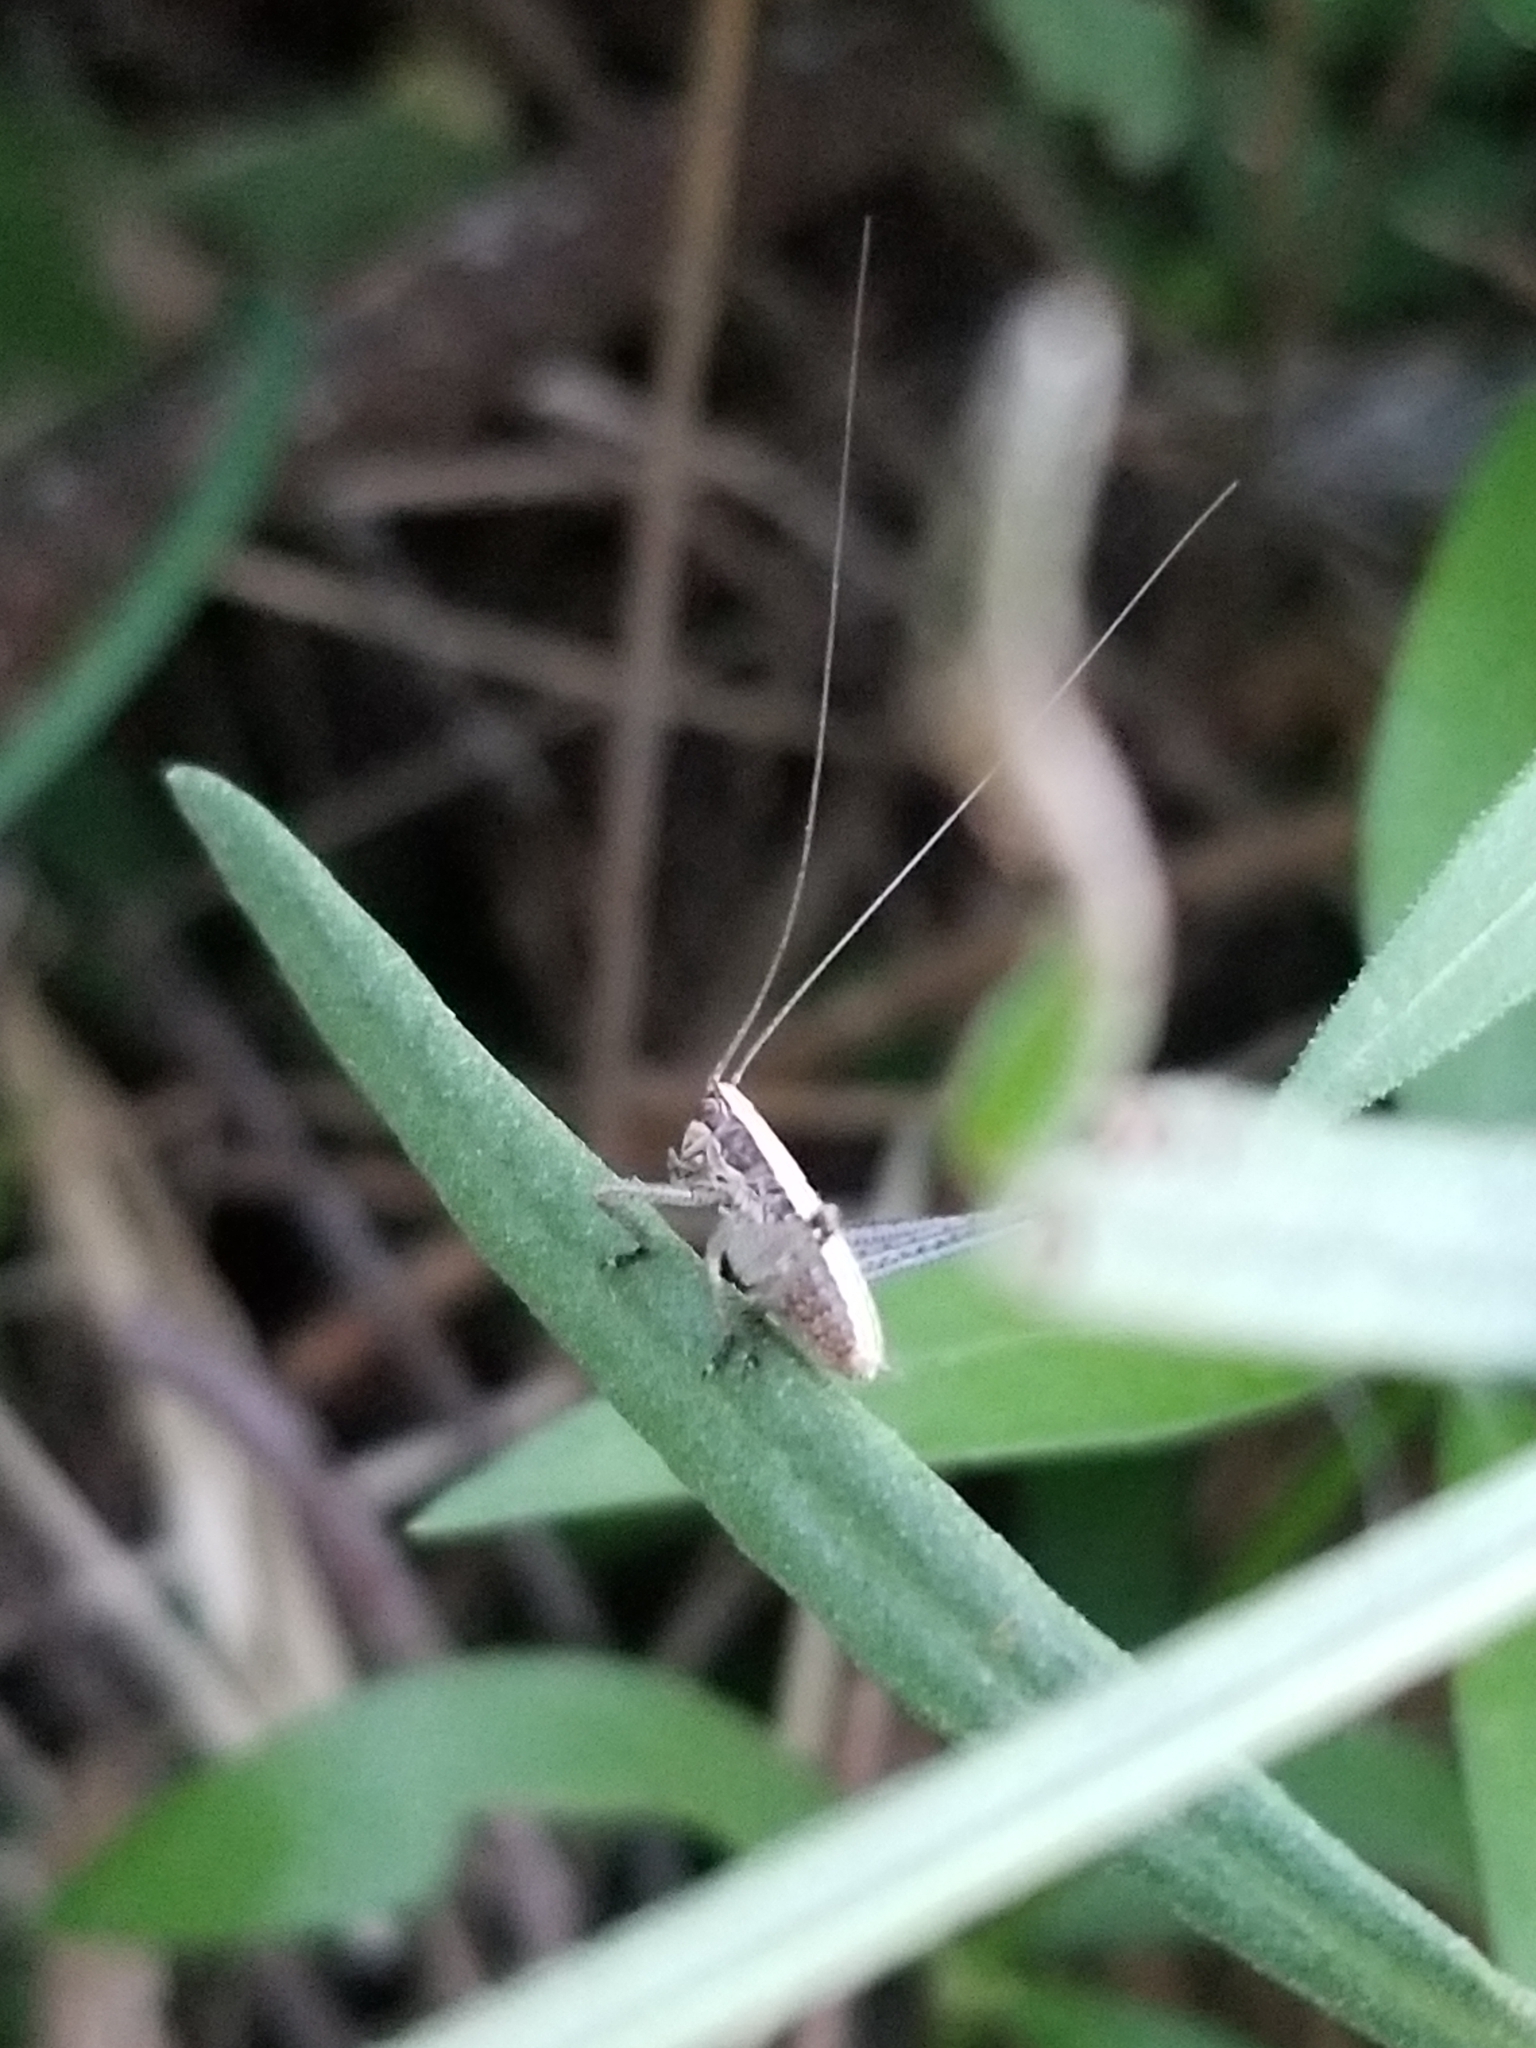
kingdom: Animalia
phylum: Arthropoda
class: Insecta
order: Orthoptera
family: Tettigoniidae
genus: Yersinella
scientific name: Yersinella raymondii
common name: Raymond's bush-cricket
